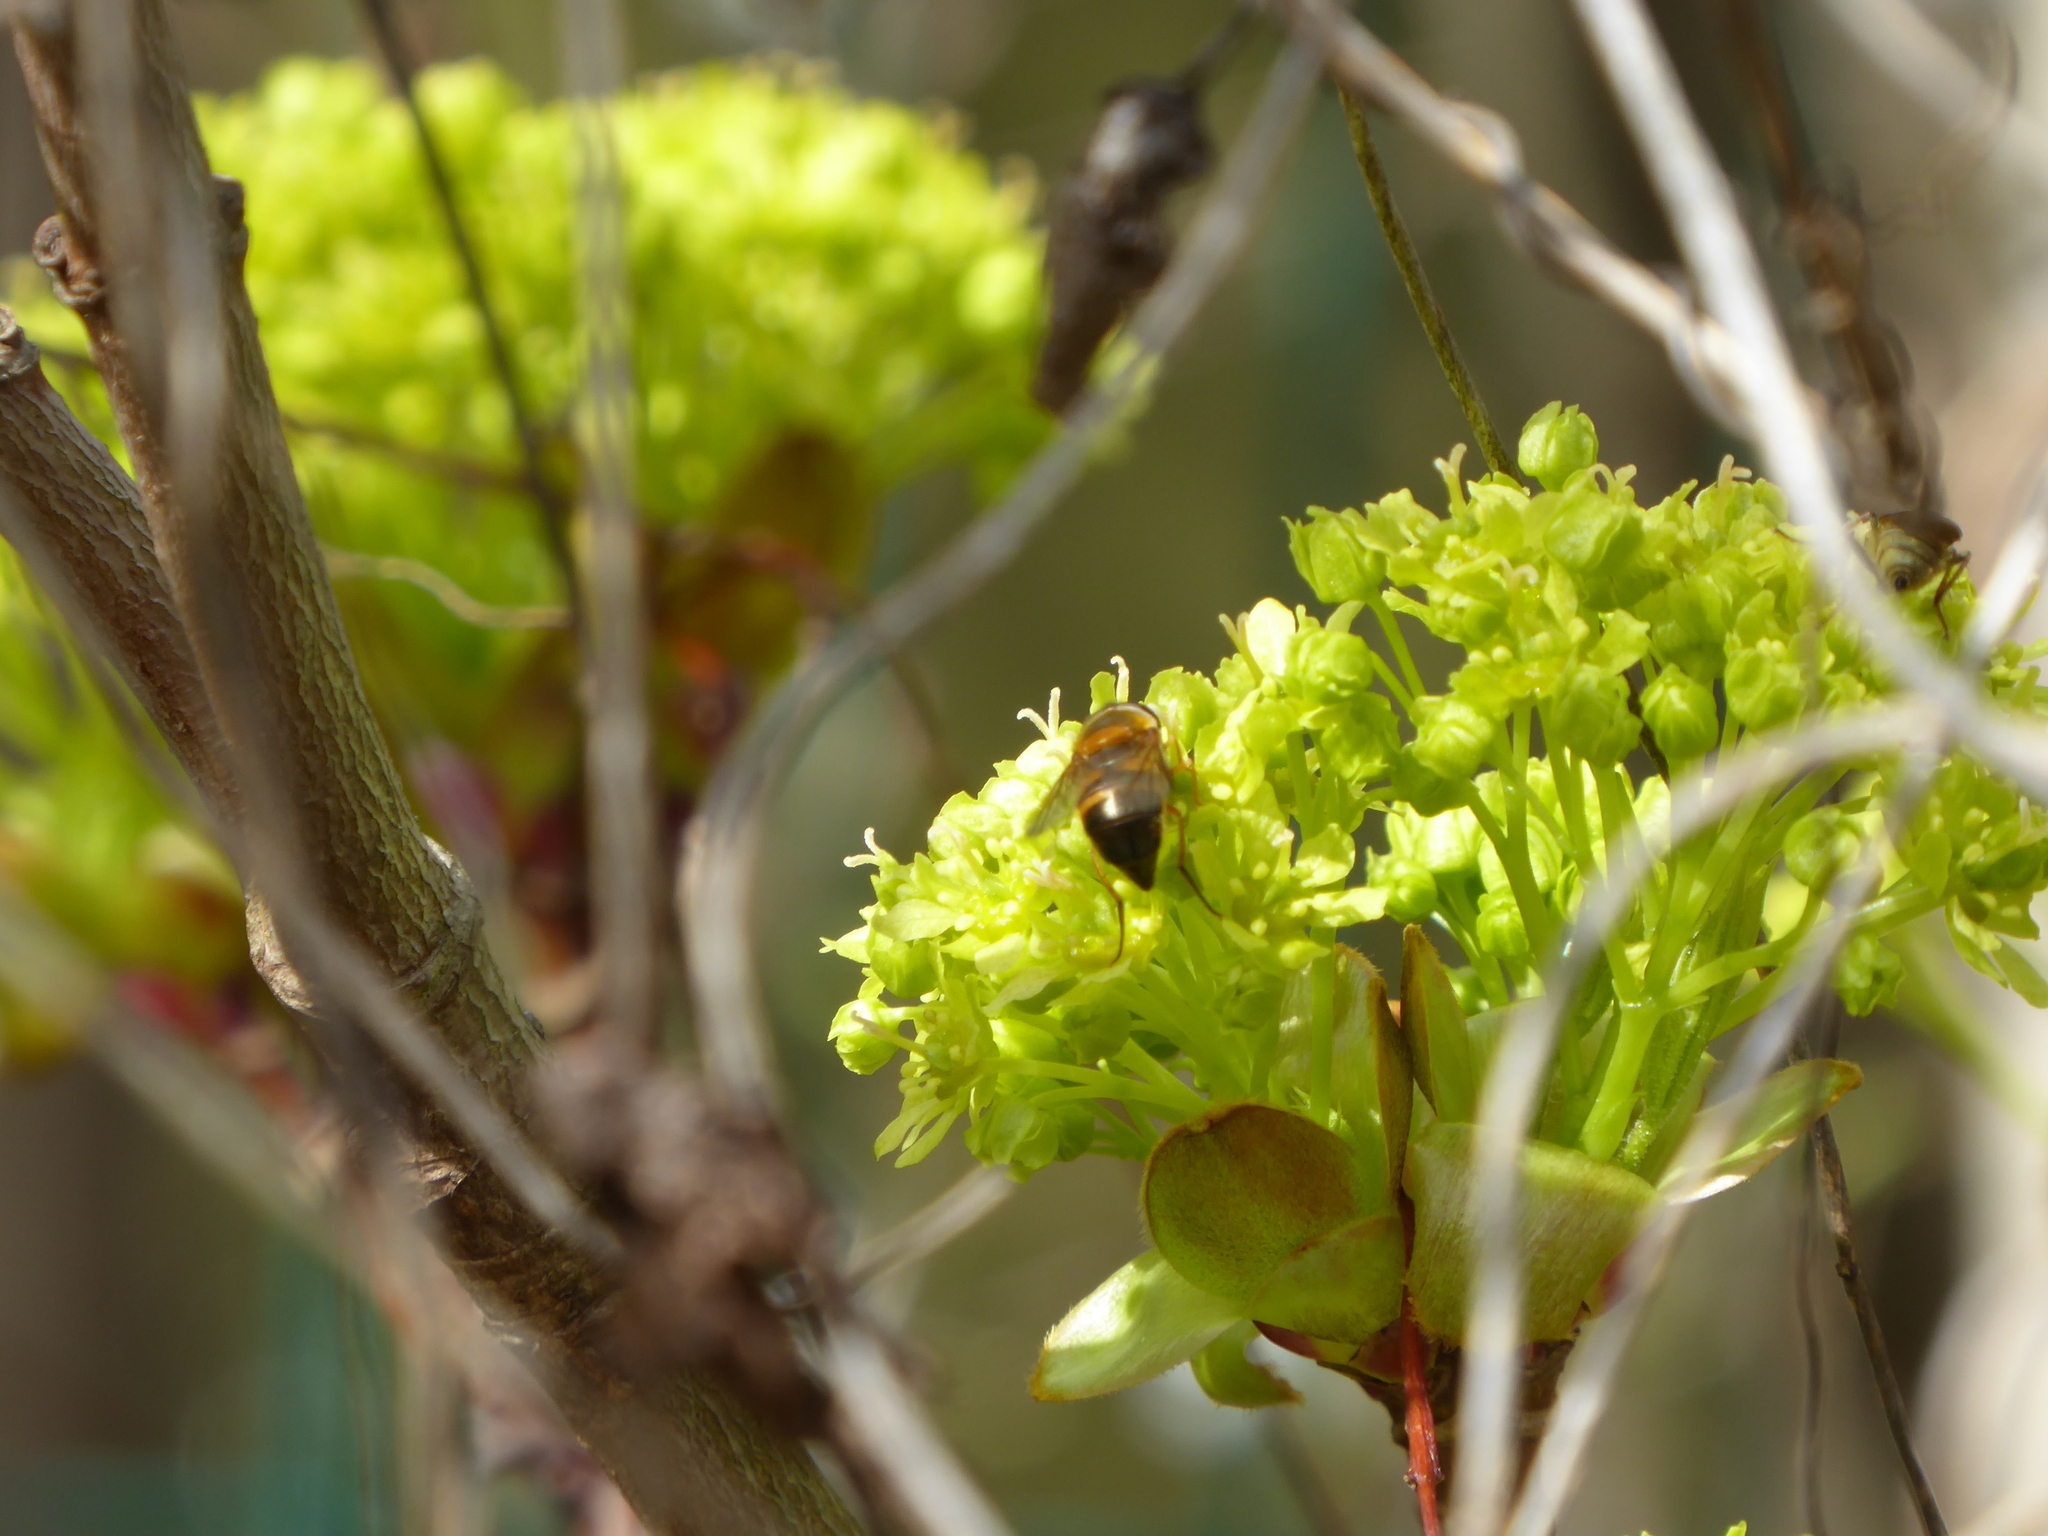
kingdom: Plantae
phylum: Tracheophyta
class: Magnoliopsida
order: Sapindales
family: Sapindaceae
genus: Acer
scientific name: Acer platanoides
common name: Norway maple
